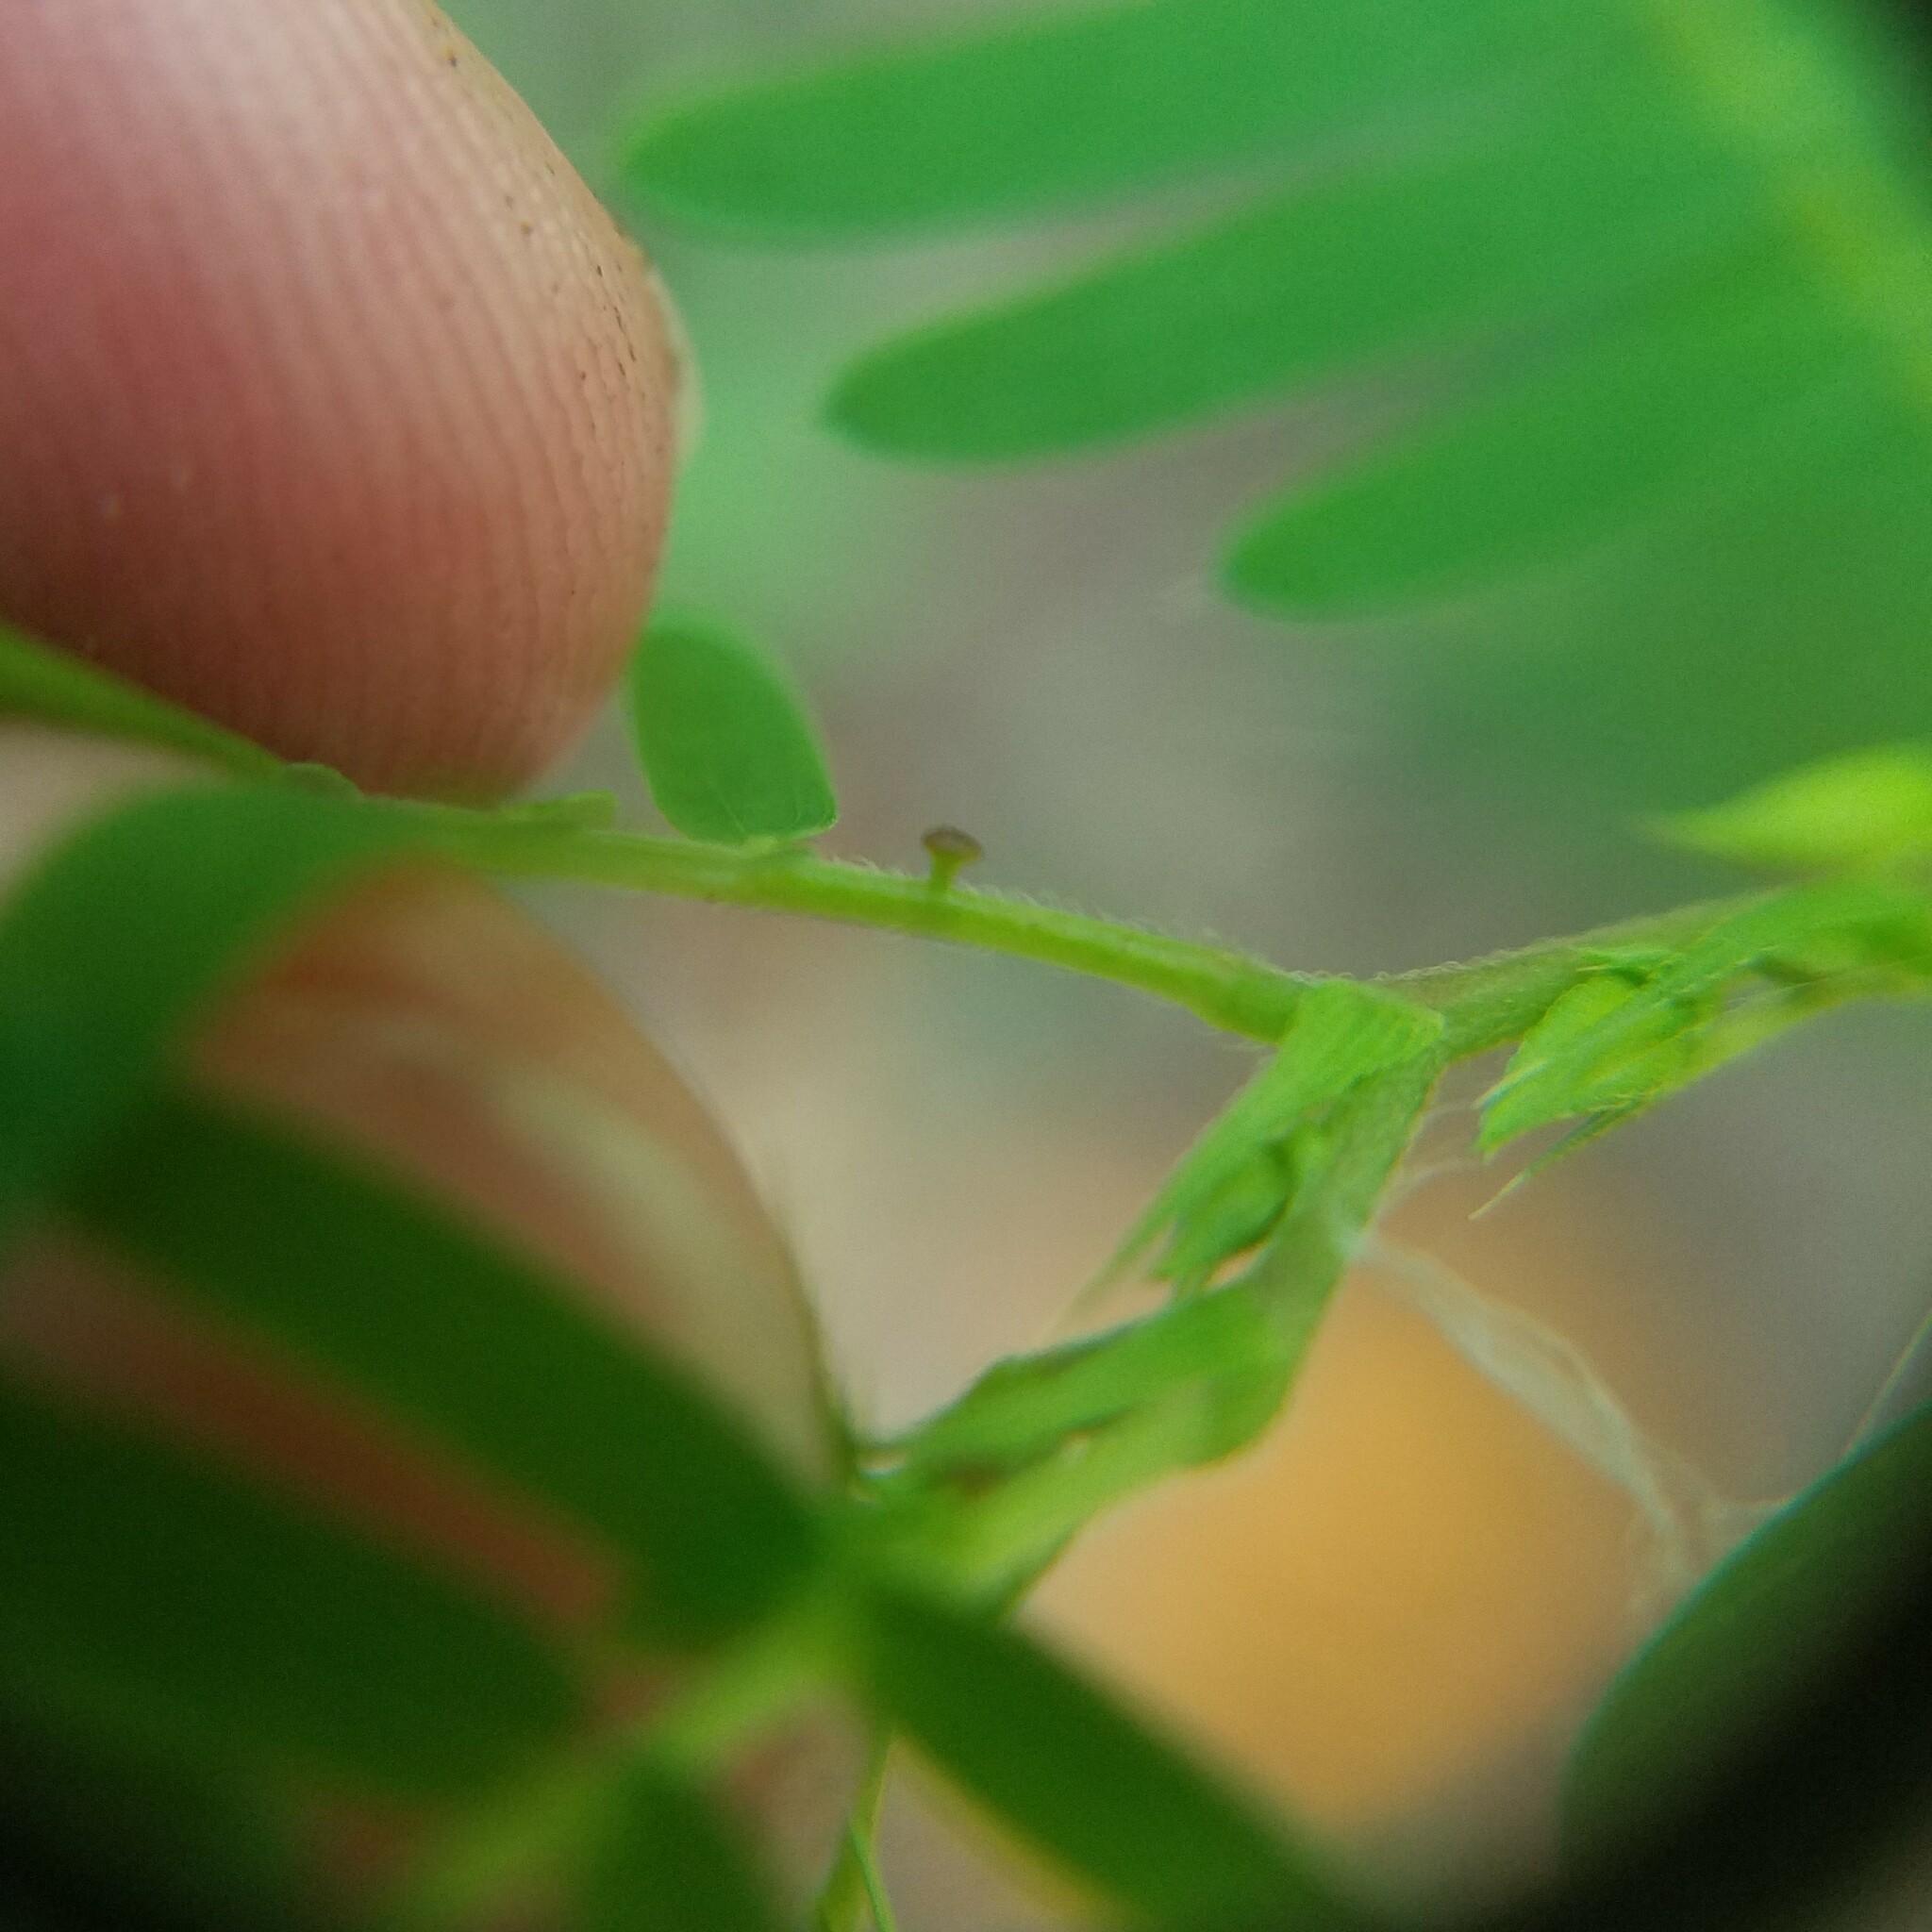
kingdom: Plantae
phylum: Tracheophyta
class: Magnoliopsida
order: Fabales
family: Fabaceae
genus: Chamaecrista
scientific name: Chamaecrista nictitans
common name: Sensitive cassia
